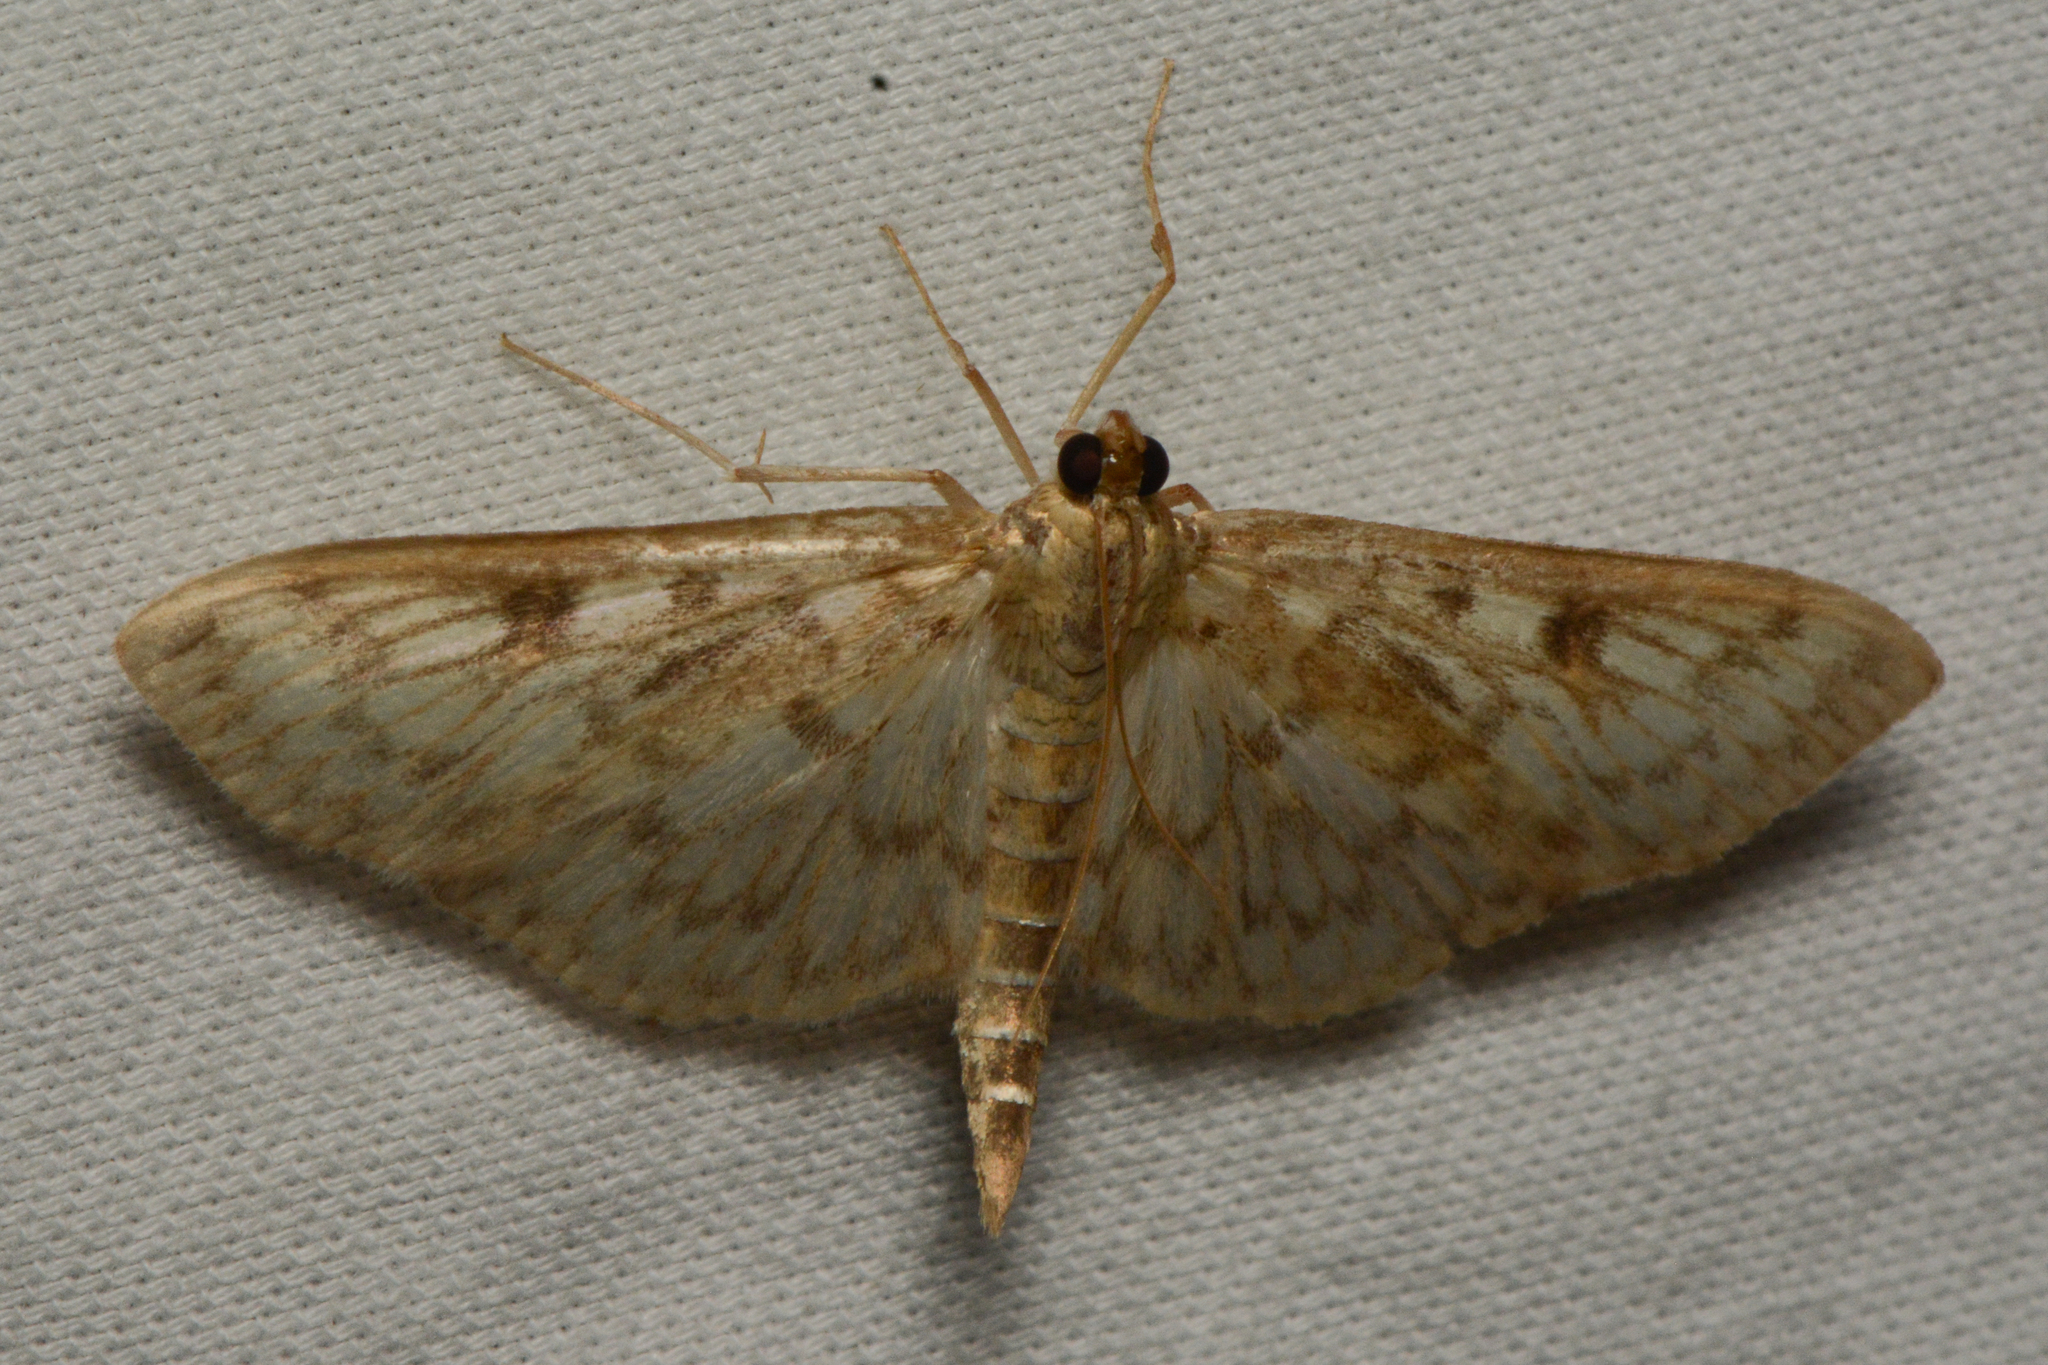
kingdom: Animalia
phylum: Arthropoda
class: Insecta
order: Lepidoptera
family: Crambidae
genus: Herpetogramma
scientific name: Herpetogramma aquilonalis
